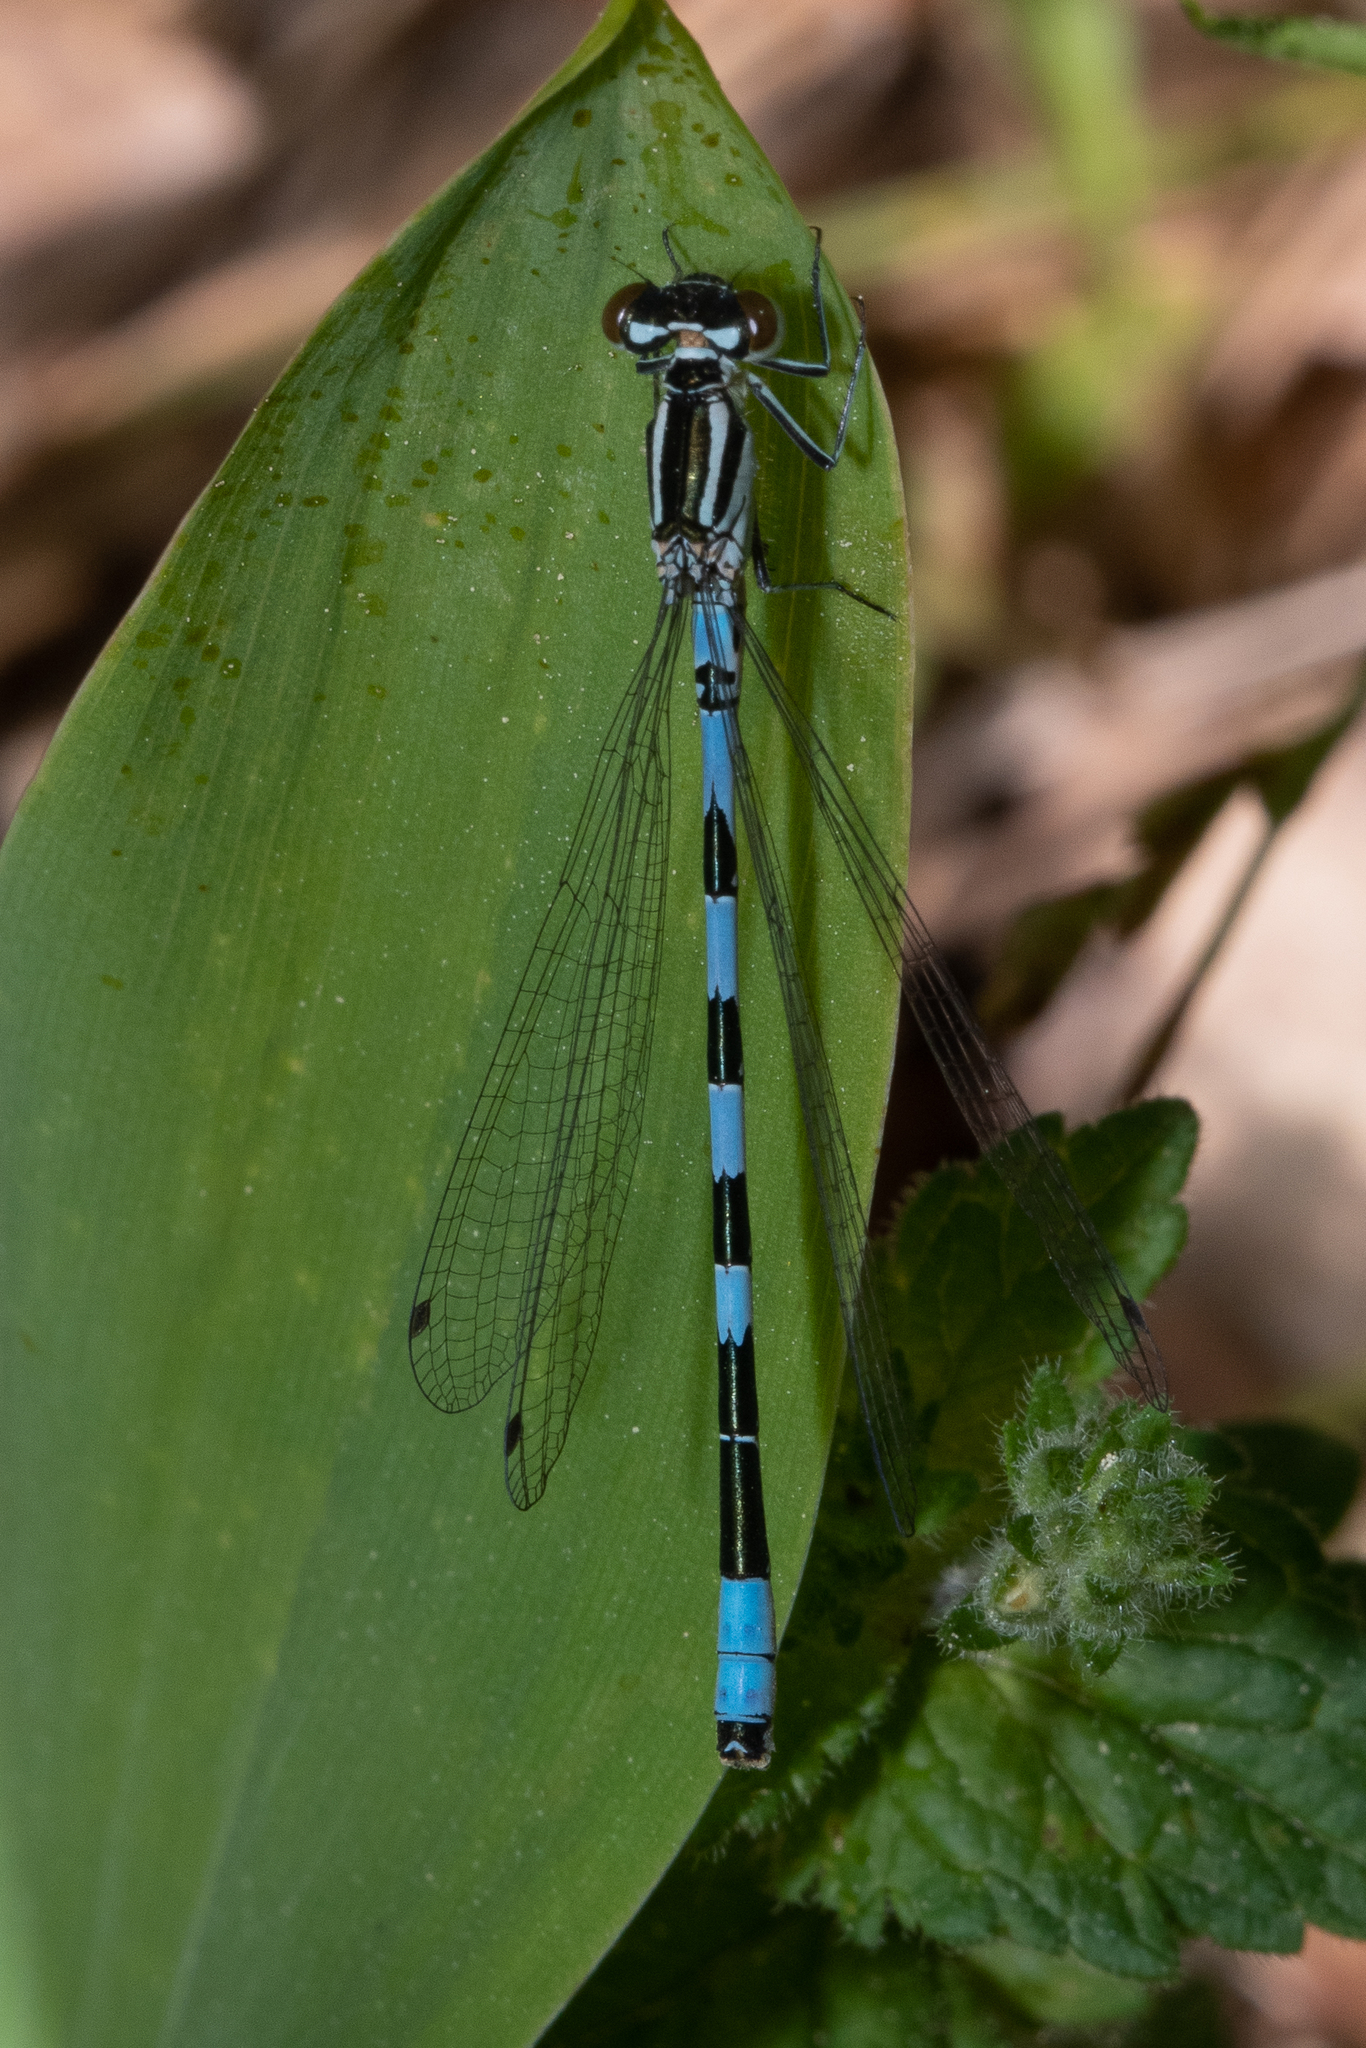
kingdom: Animalia
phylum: Arthropoda
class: Insecta
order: Odonata
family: Coenagrionidae
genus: Coenagrion
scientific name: Coenagrion hastulatum
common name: Spearhead bluet
